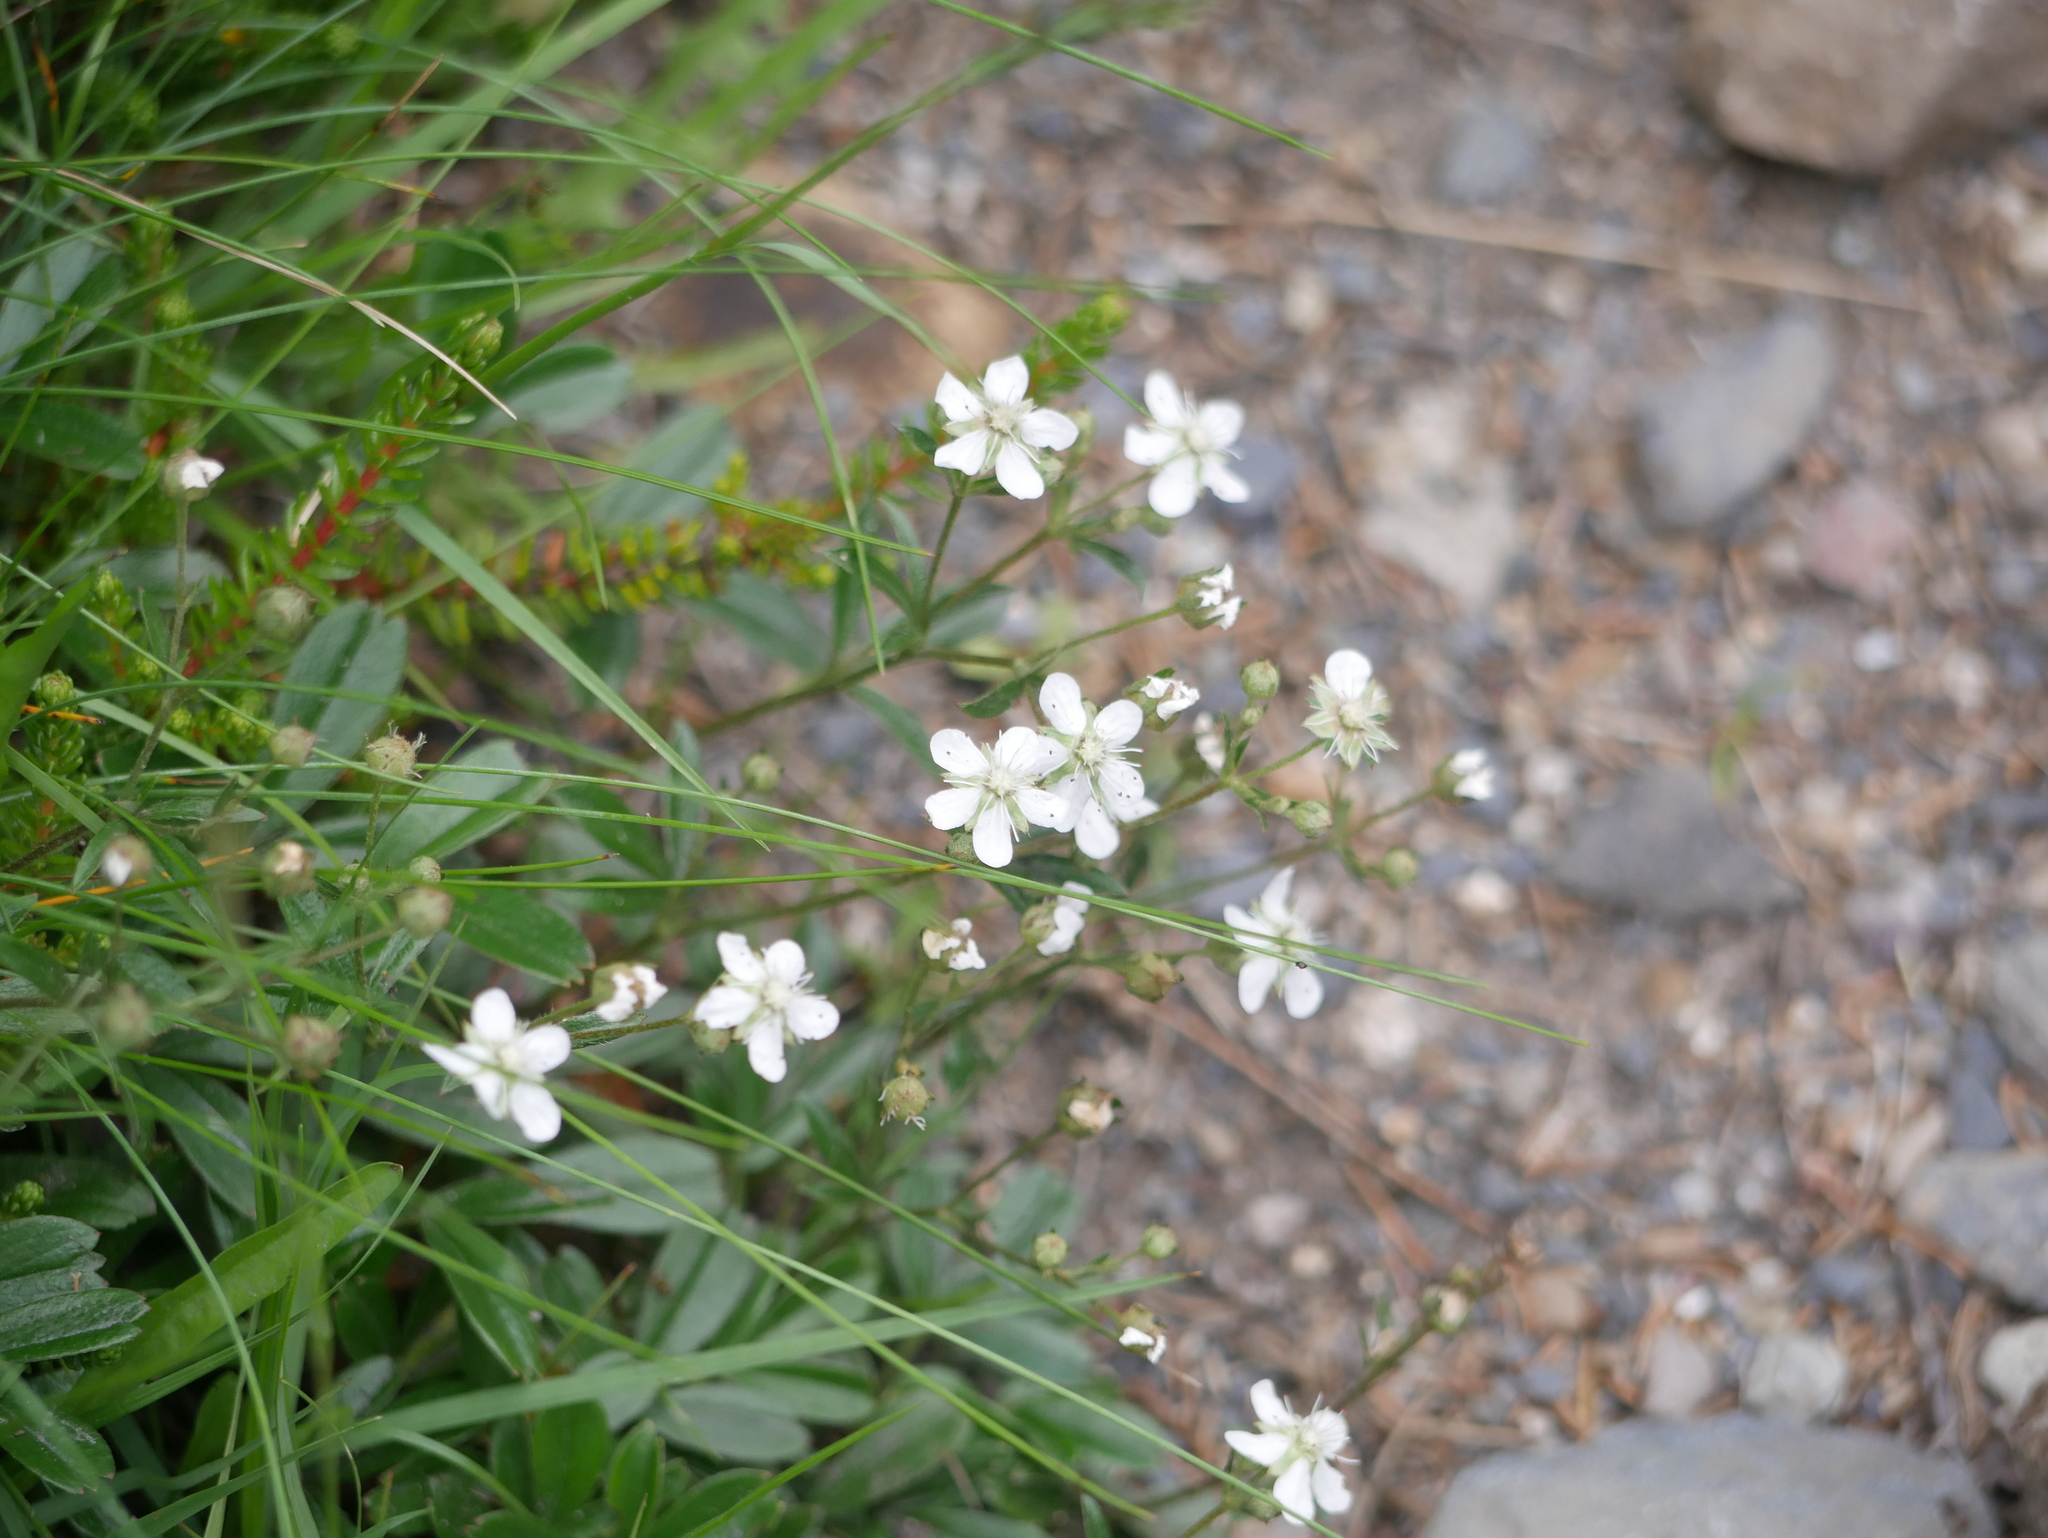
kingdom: Plantae
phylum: Tracheophyta
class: Magnoliopsida
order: Rosales
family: Rosaceae
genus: Sibbaldia
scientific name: Sibbaldia tridentata
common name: Three-toothed cinquefoil
